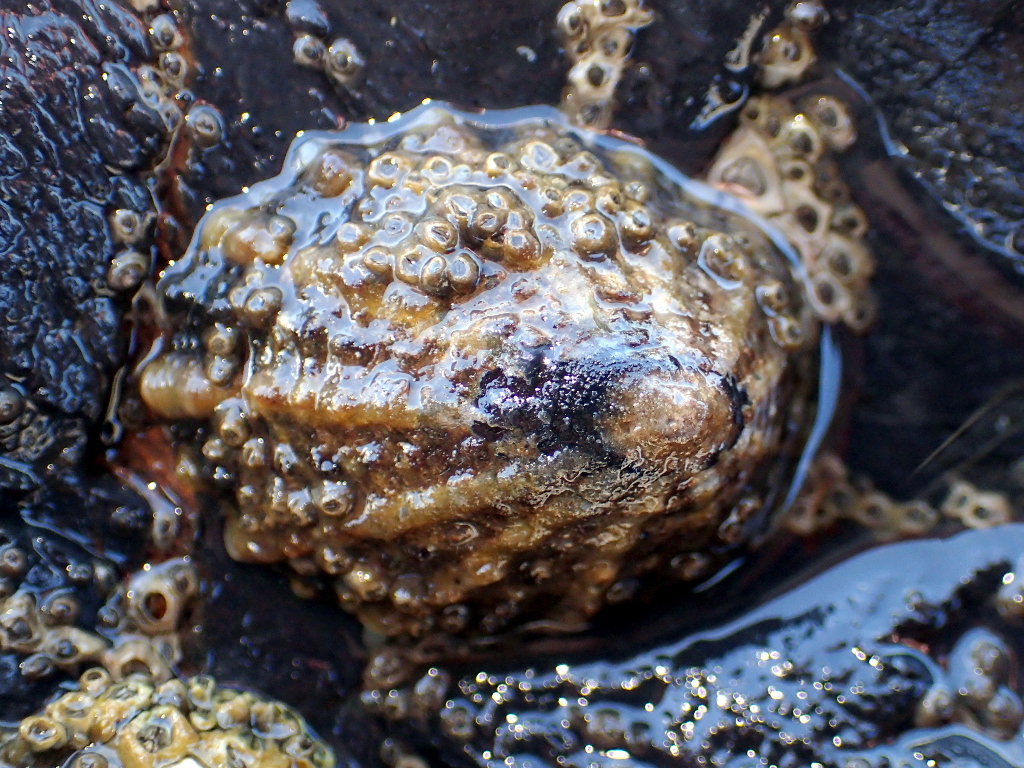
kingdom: Animalia
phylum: Mollusca
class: Gastropoda
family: Nacellidae
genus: Cellana
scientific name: Cellana ornata
